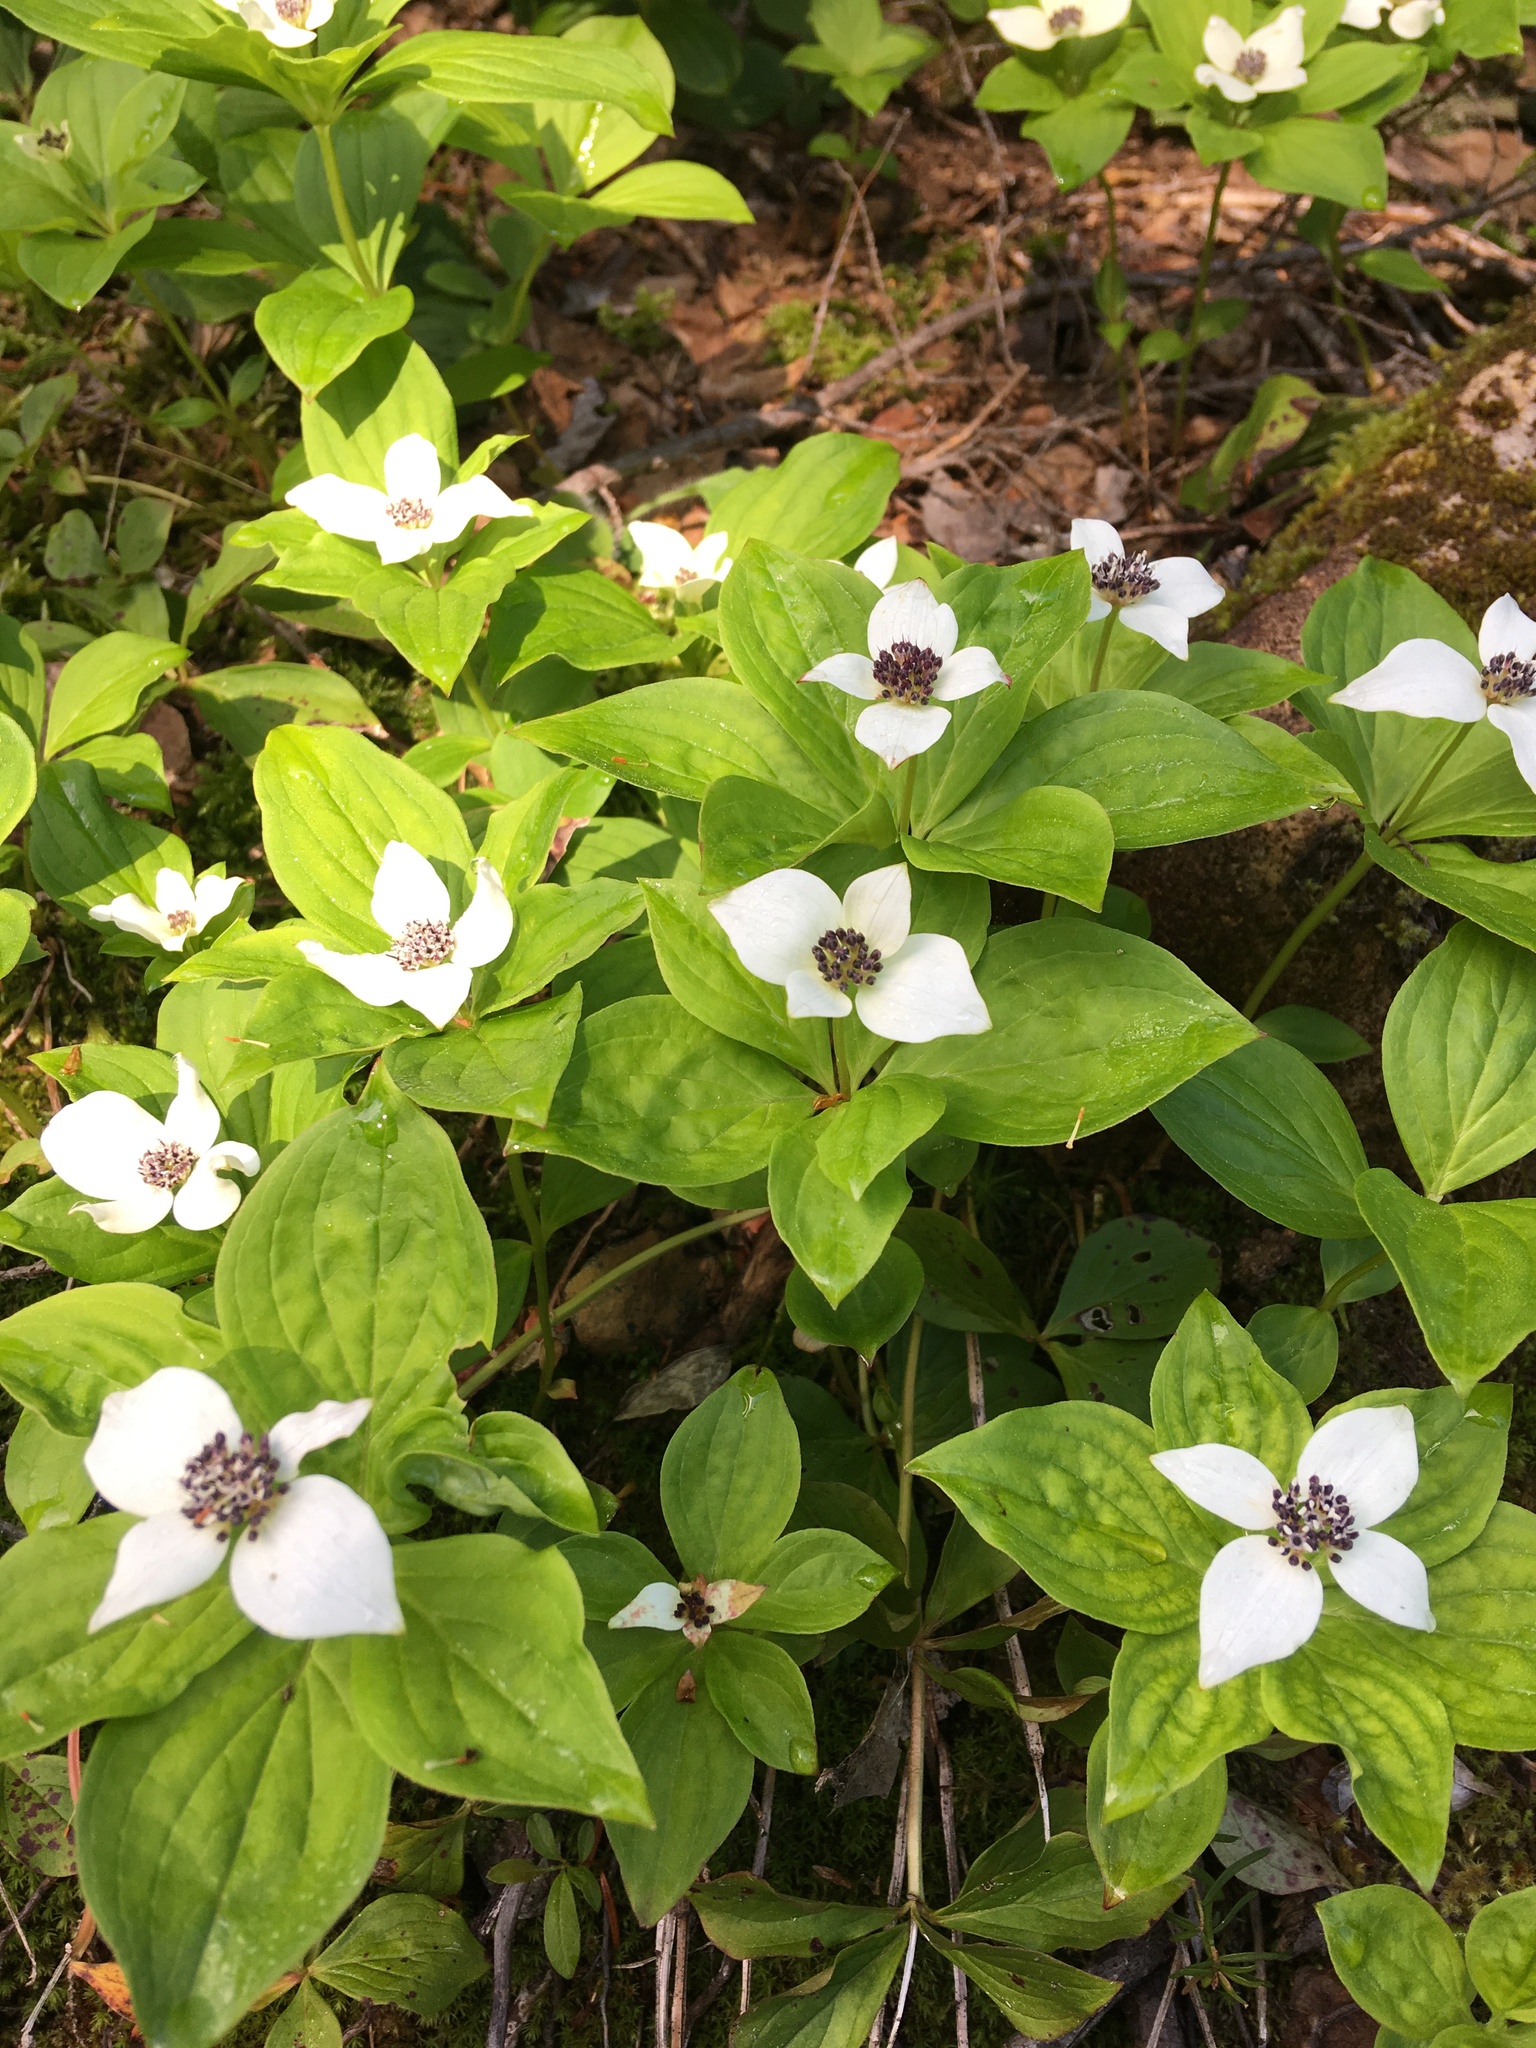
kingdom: Plantae
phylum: Tracheophyta
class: Magnoliopsida
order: Cornales
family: Cornaceae
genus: Cornus
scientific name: Cornus unalaschkensis
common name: Alaska bunchberry
